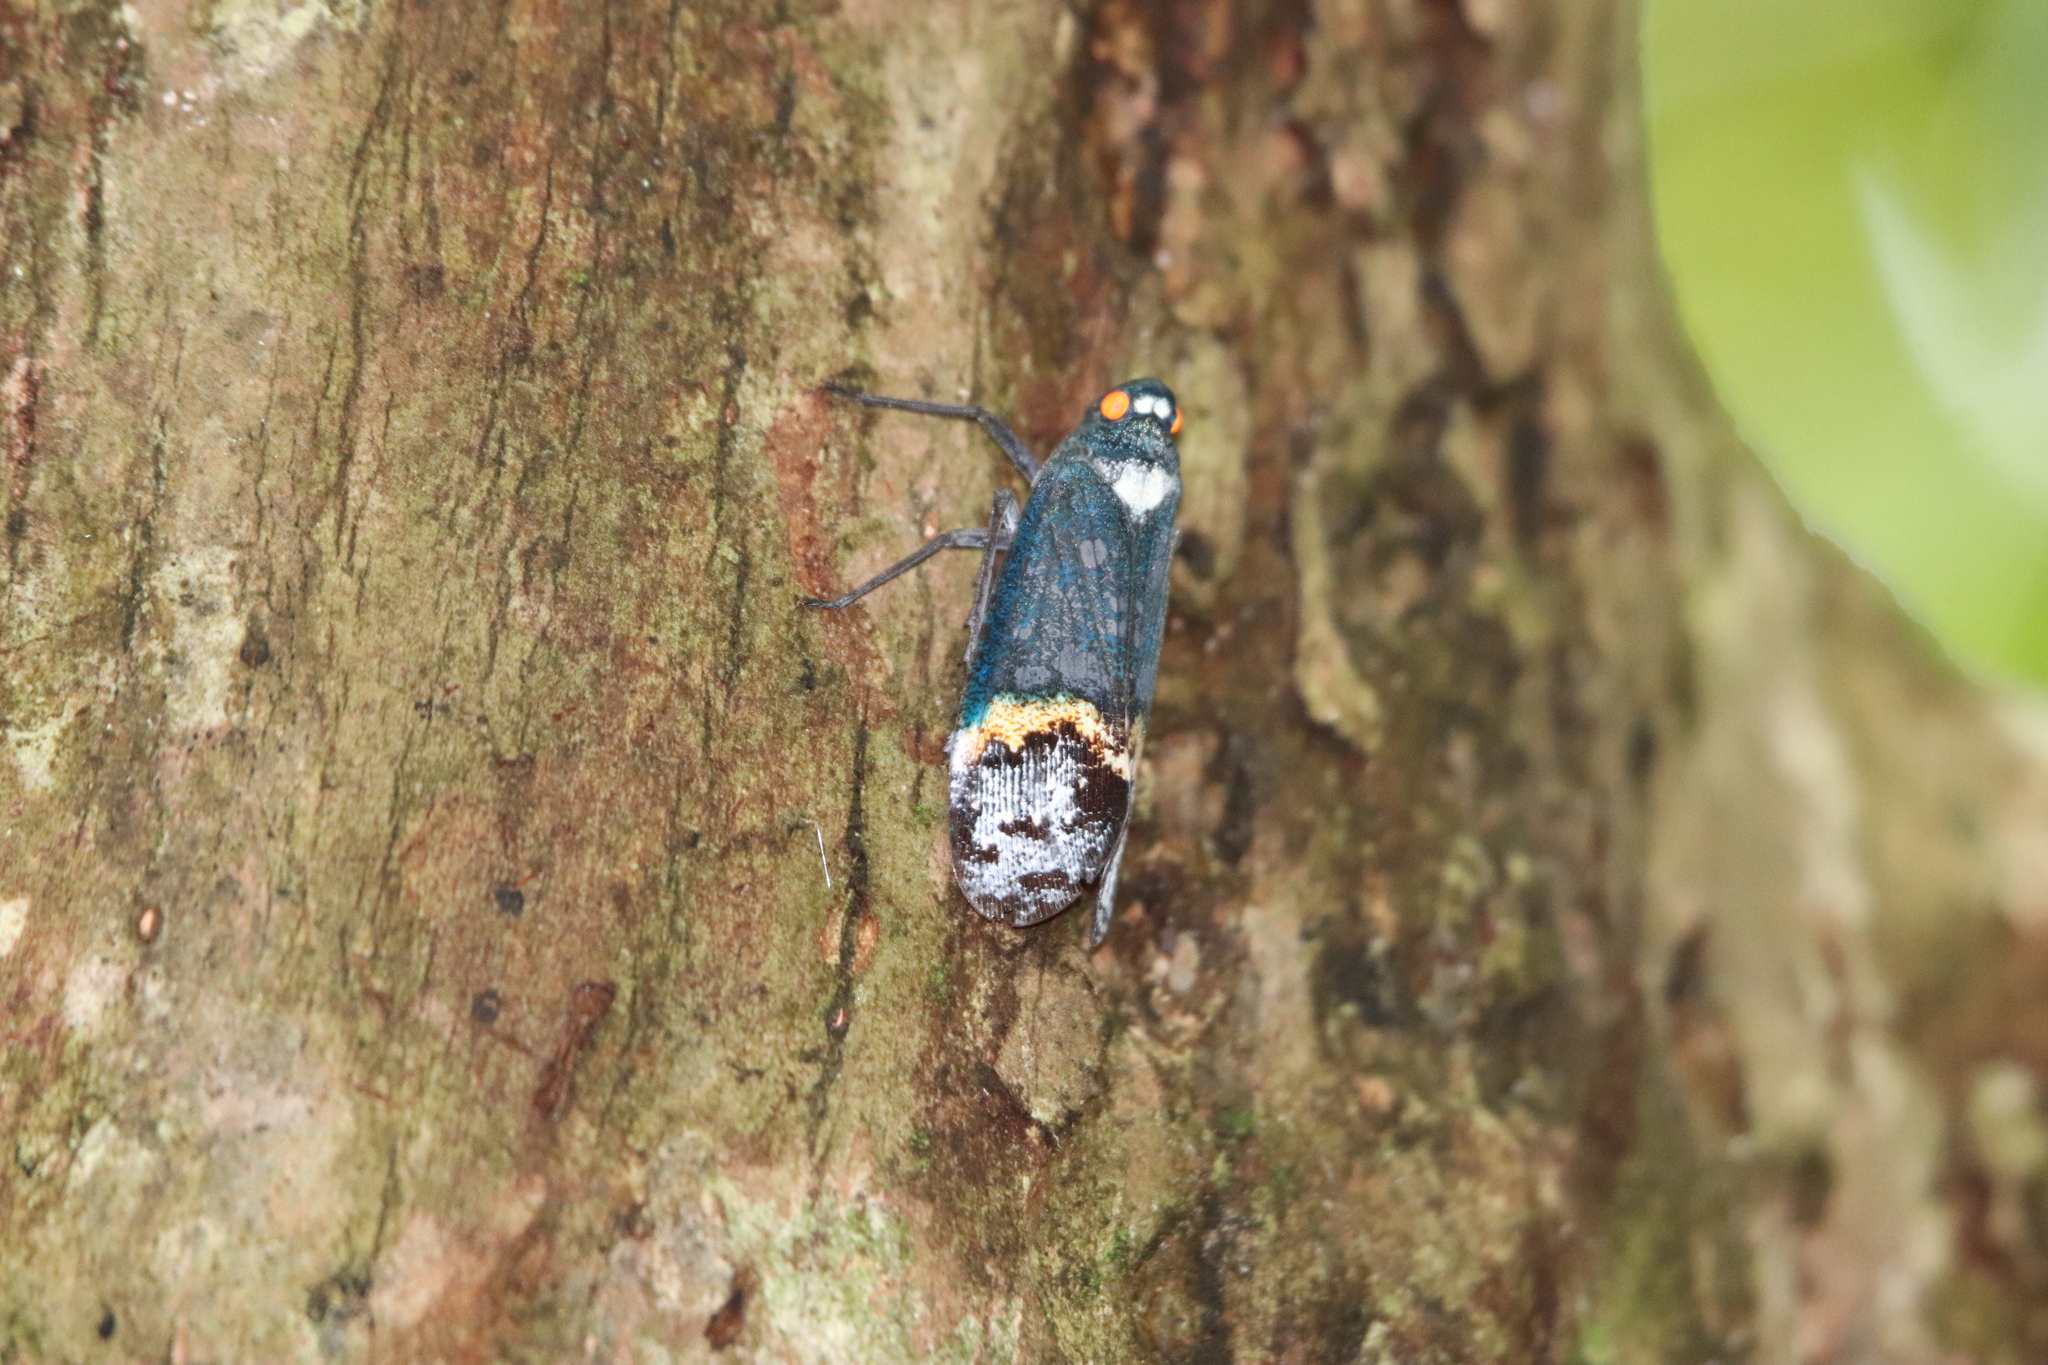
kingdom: Animalia
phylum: Arthropoda
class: Insecta
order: Hemiptera
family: Fulgoridae
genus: Penthicodes
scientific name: Penthicodes farinosa
